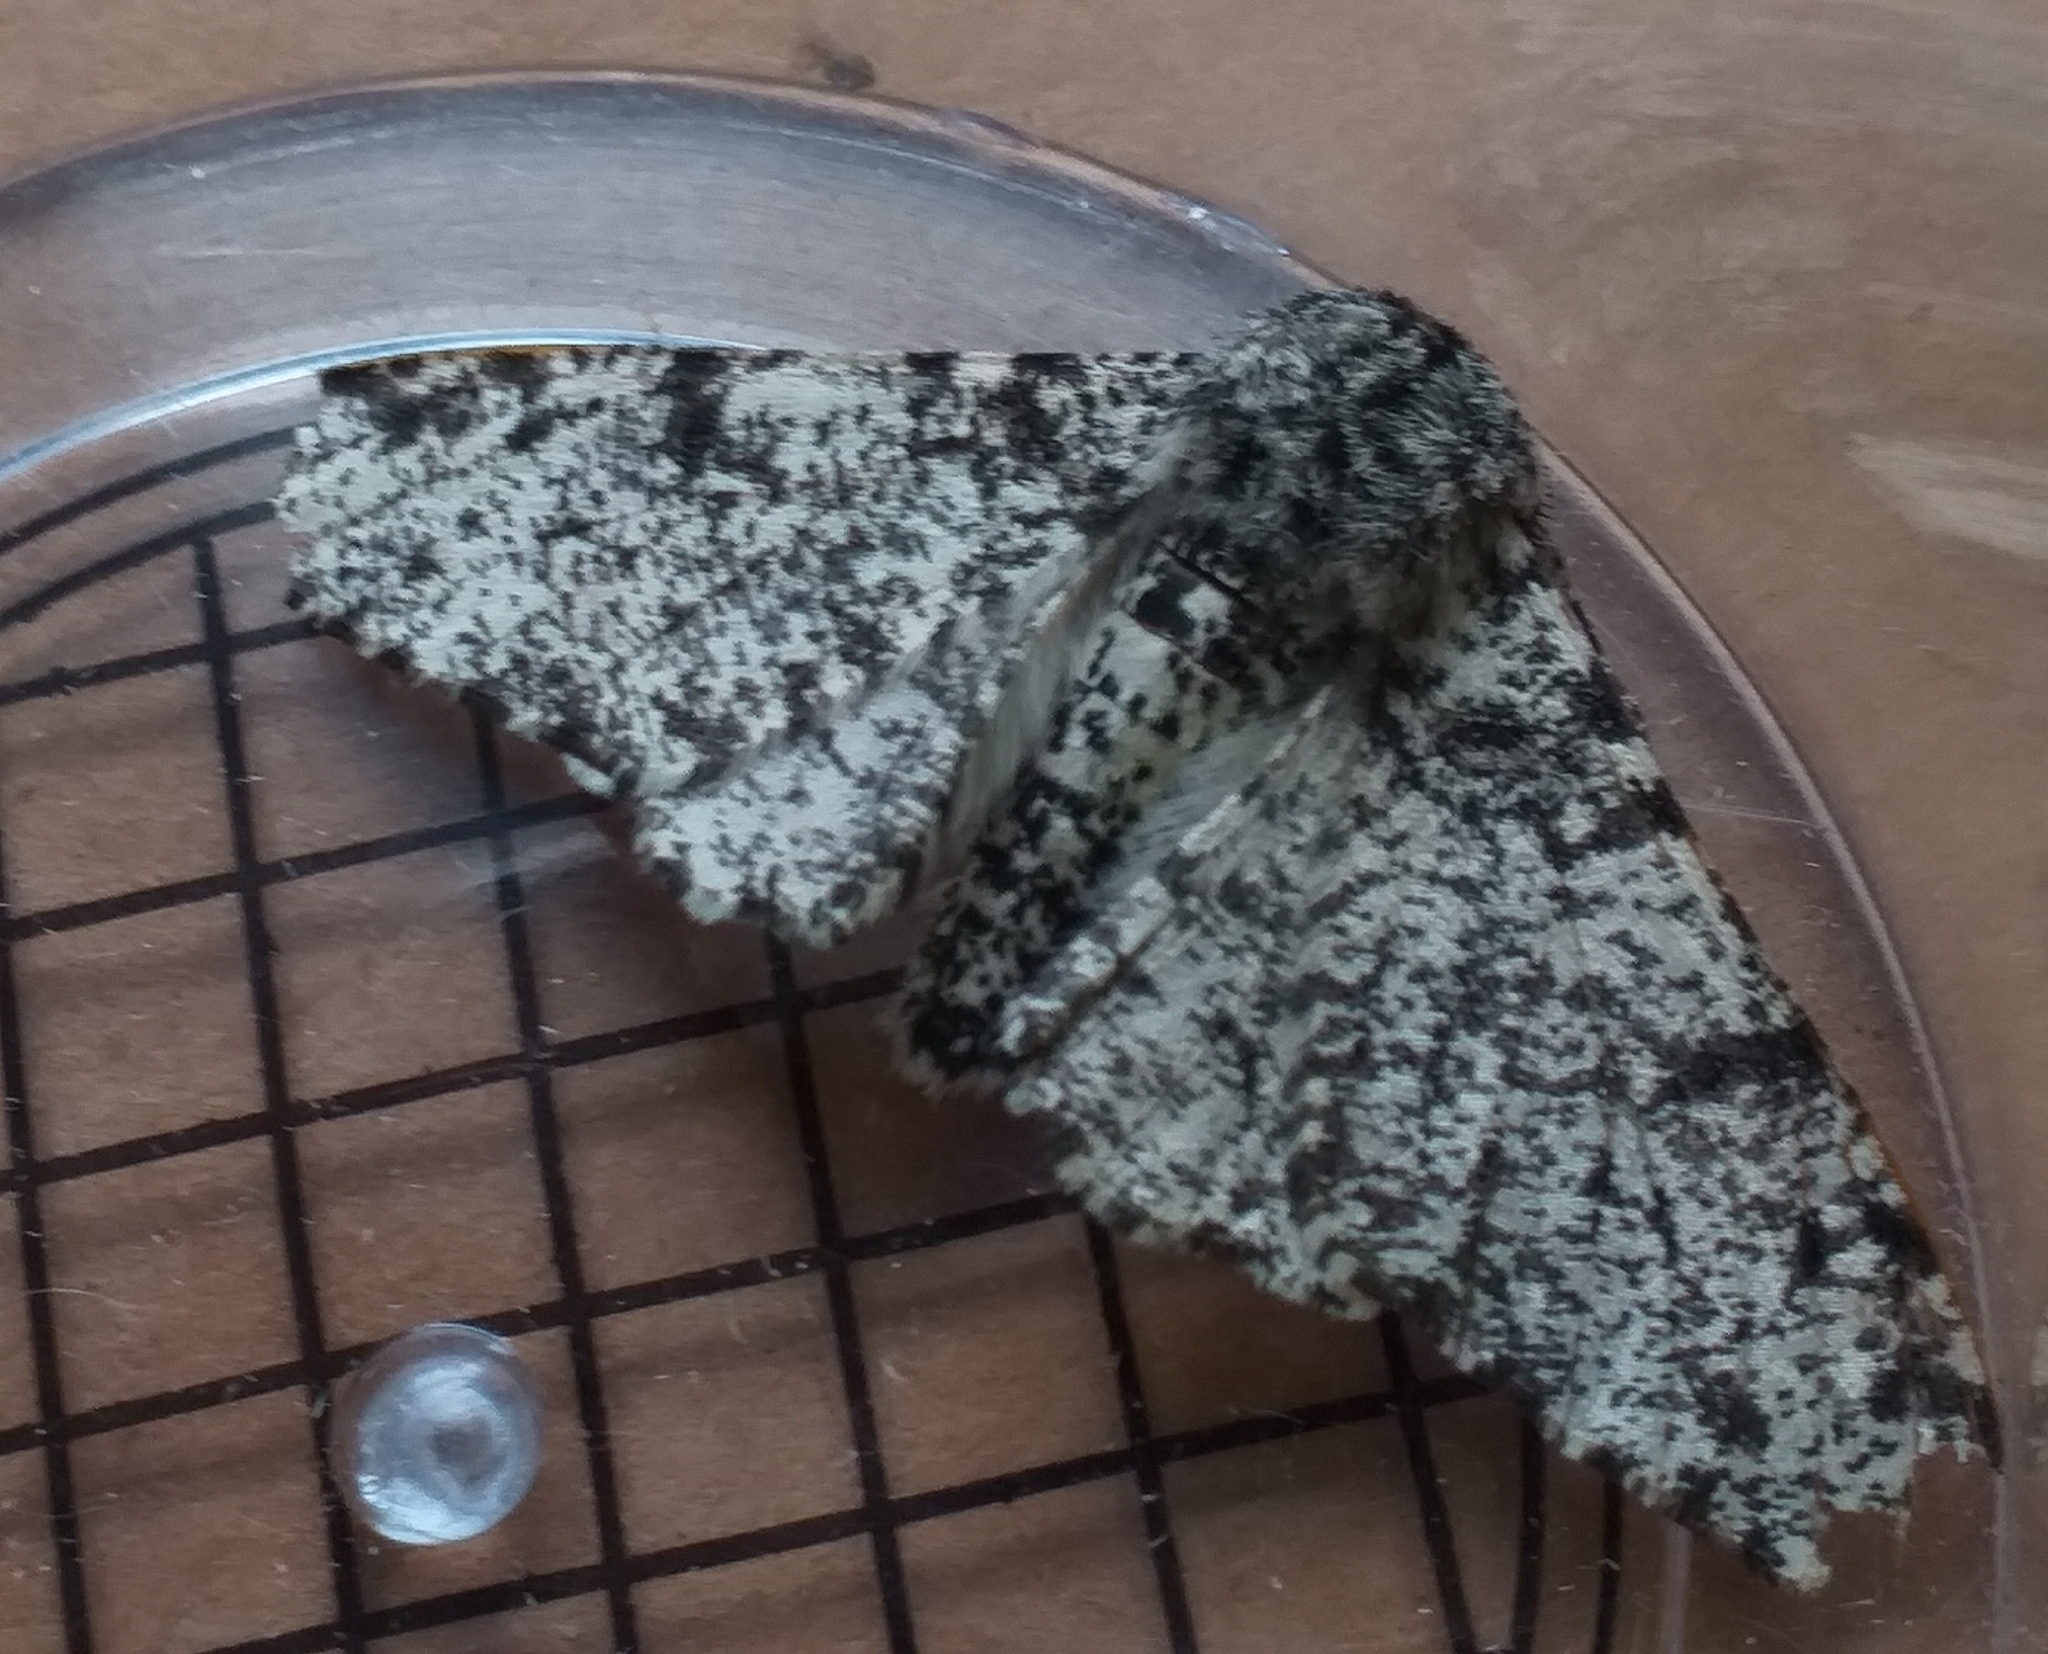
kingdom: Animalia
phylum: Arthropoda
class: Insecta
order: Lepidoptera
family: Geometridae
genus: Biston
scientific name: Biston betularia
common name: Peppered moth
